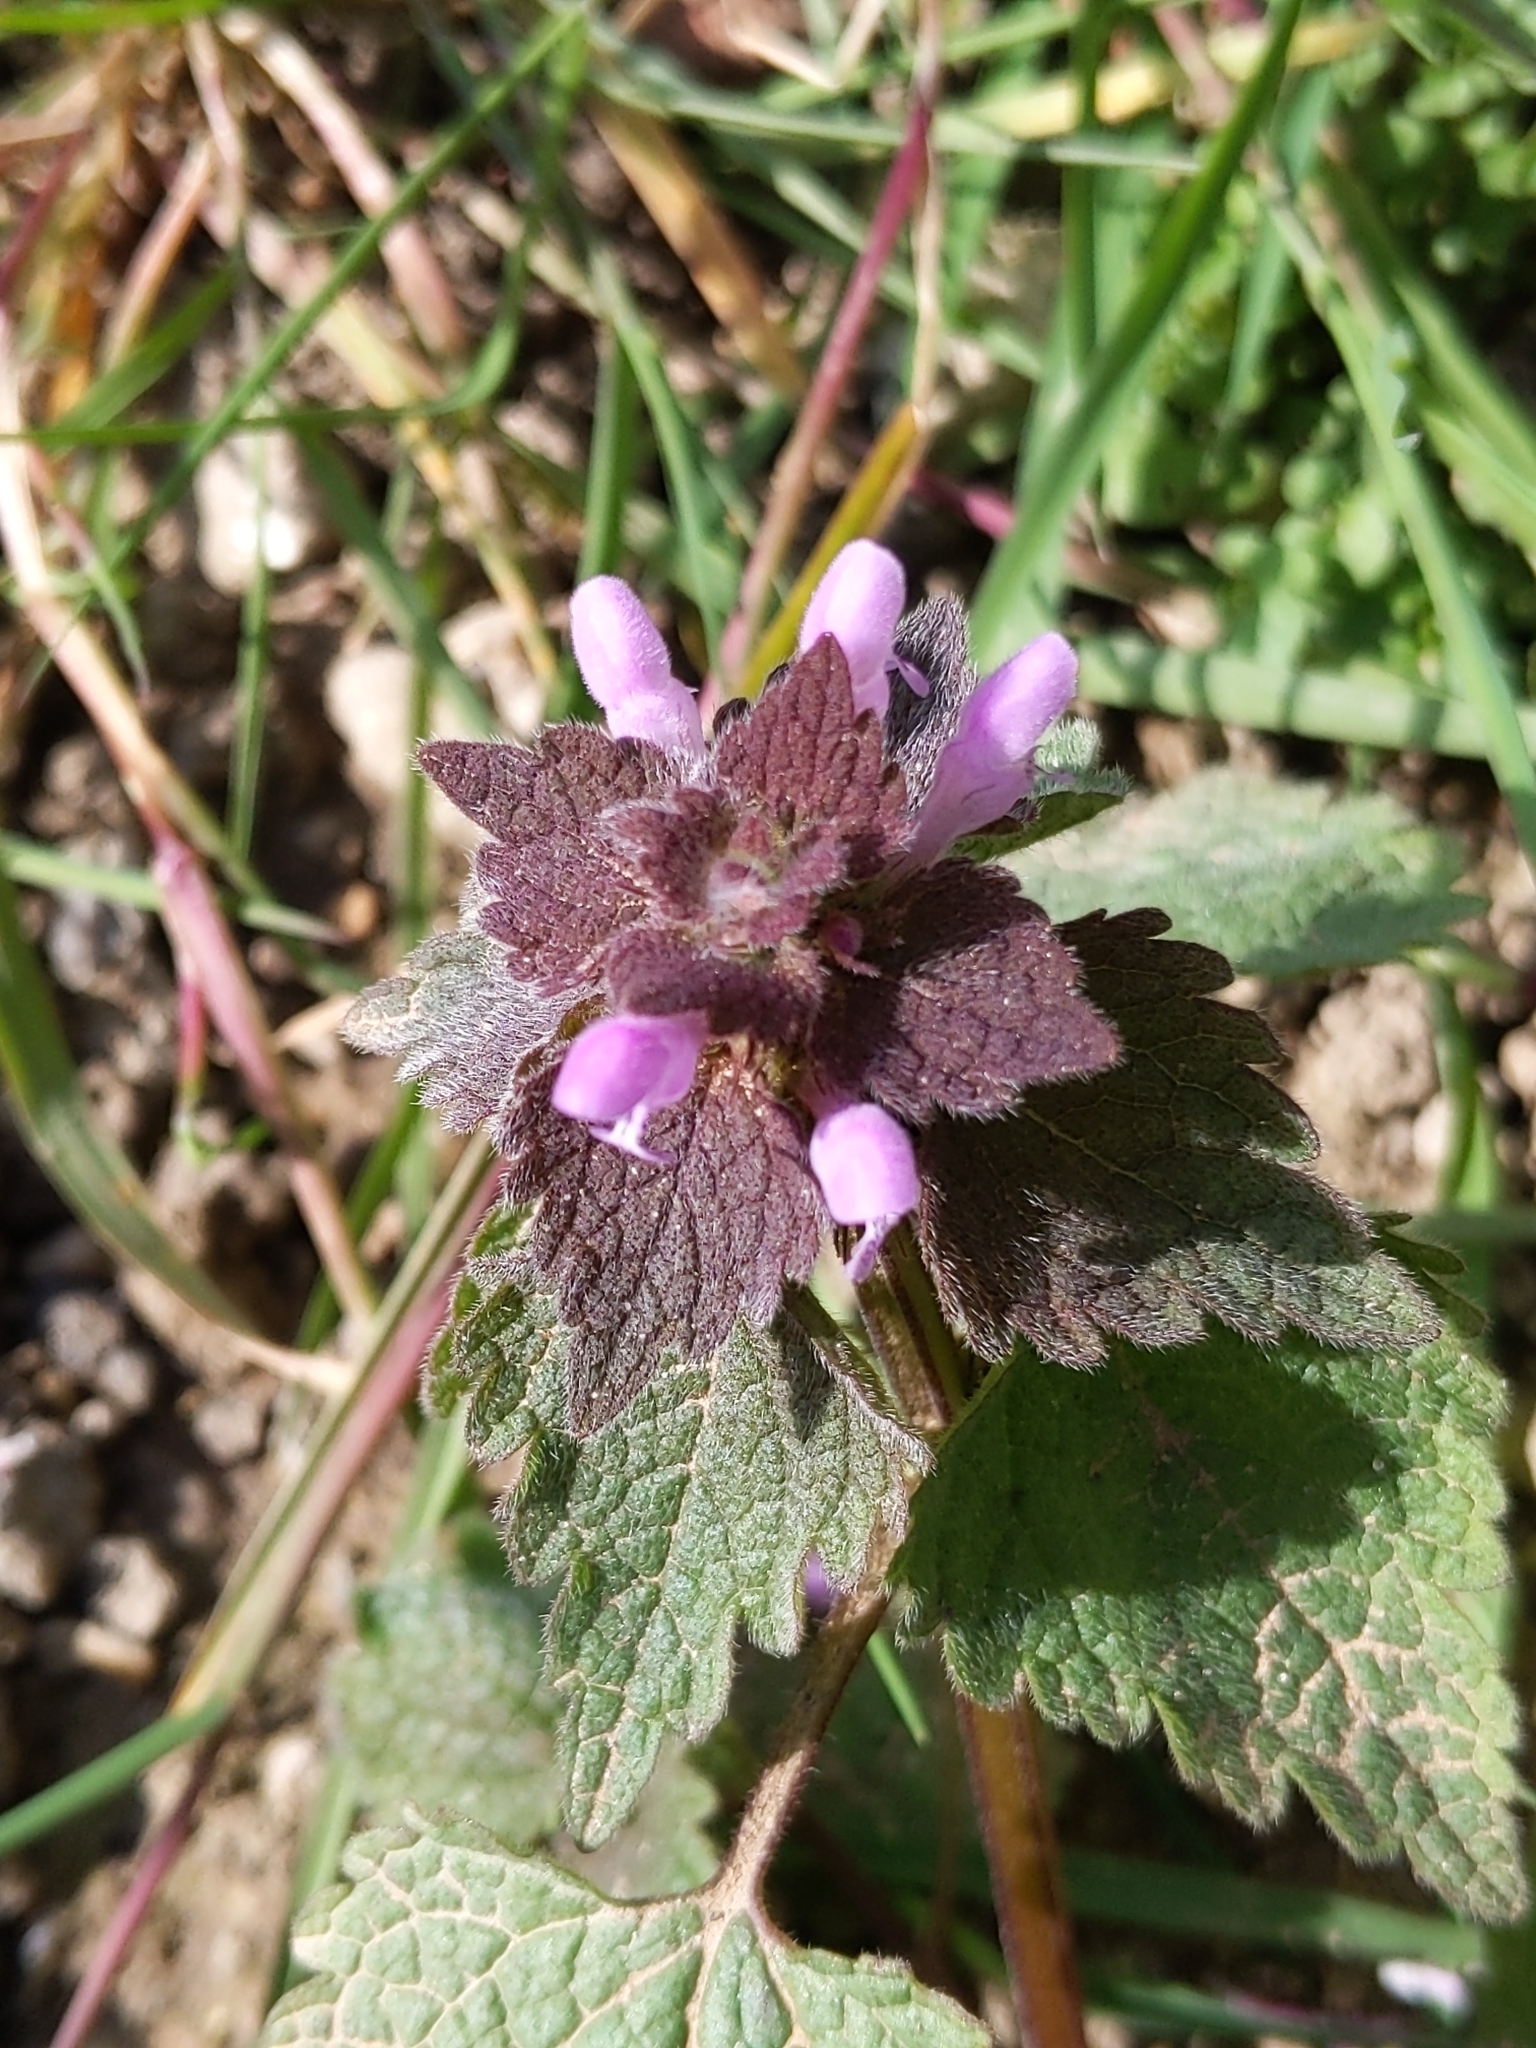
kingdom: Plantae
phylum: Tracheophyta
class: Magnoliopsida
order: Lamiales
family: Lamiaceae
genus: Lamium
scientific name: Lamium purpureum
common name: Red dead-nettle
